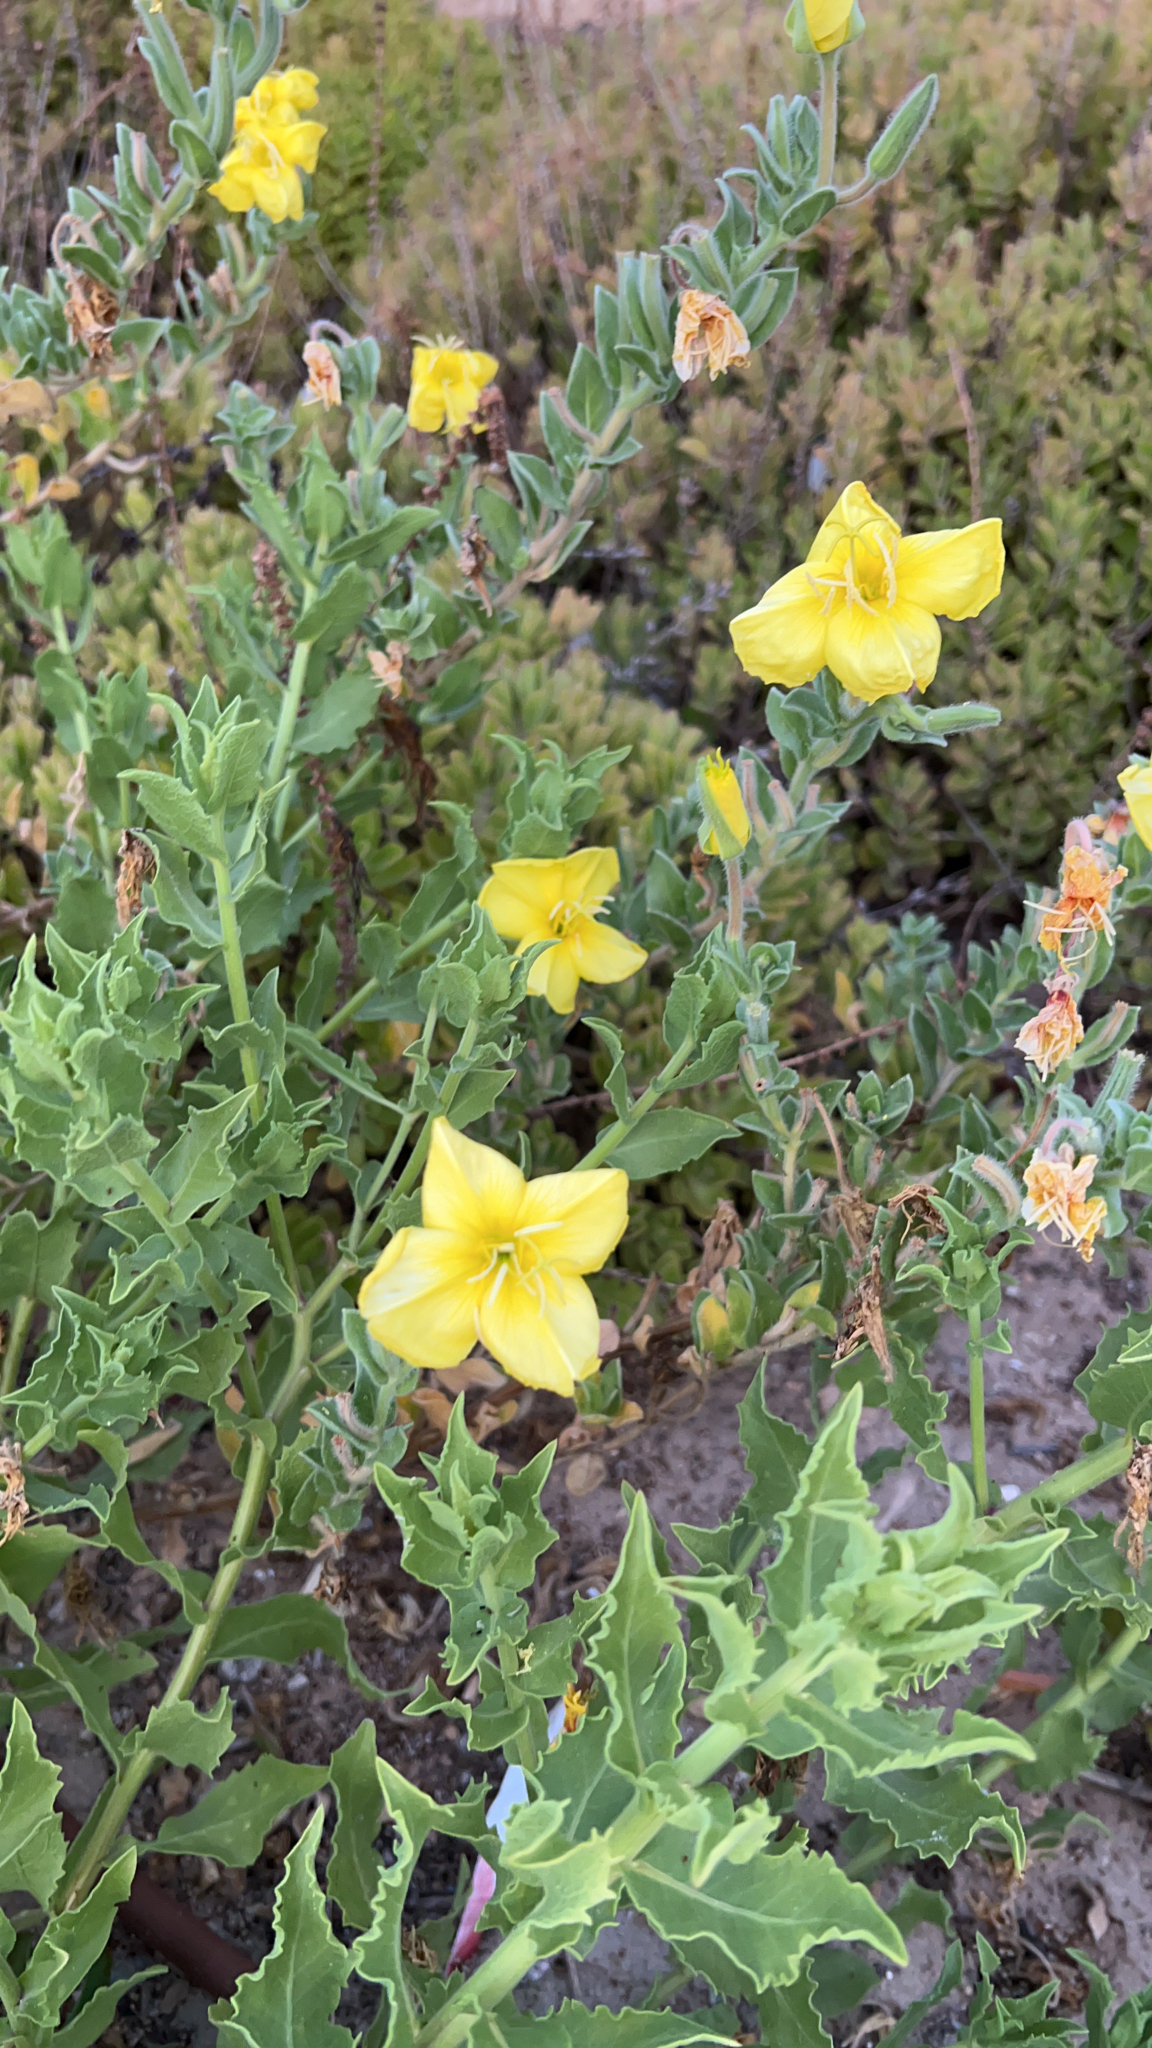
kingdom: Plantae
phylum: Tracheophyta
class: Magnoliopsida
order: Myrtales
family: Onagraceae
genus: Oenothera
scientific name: Oenothera drummondii
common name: Beach evening-primrose
